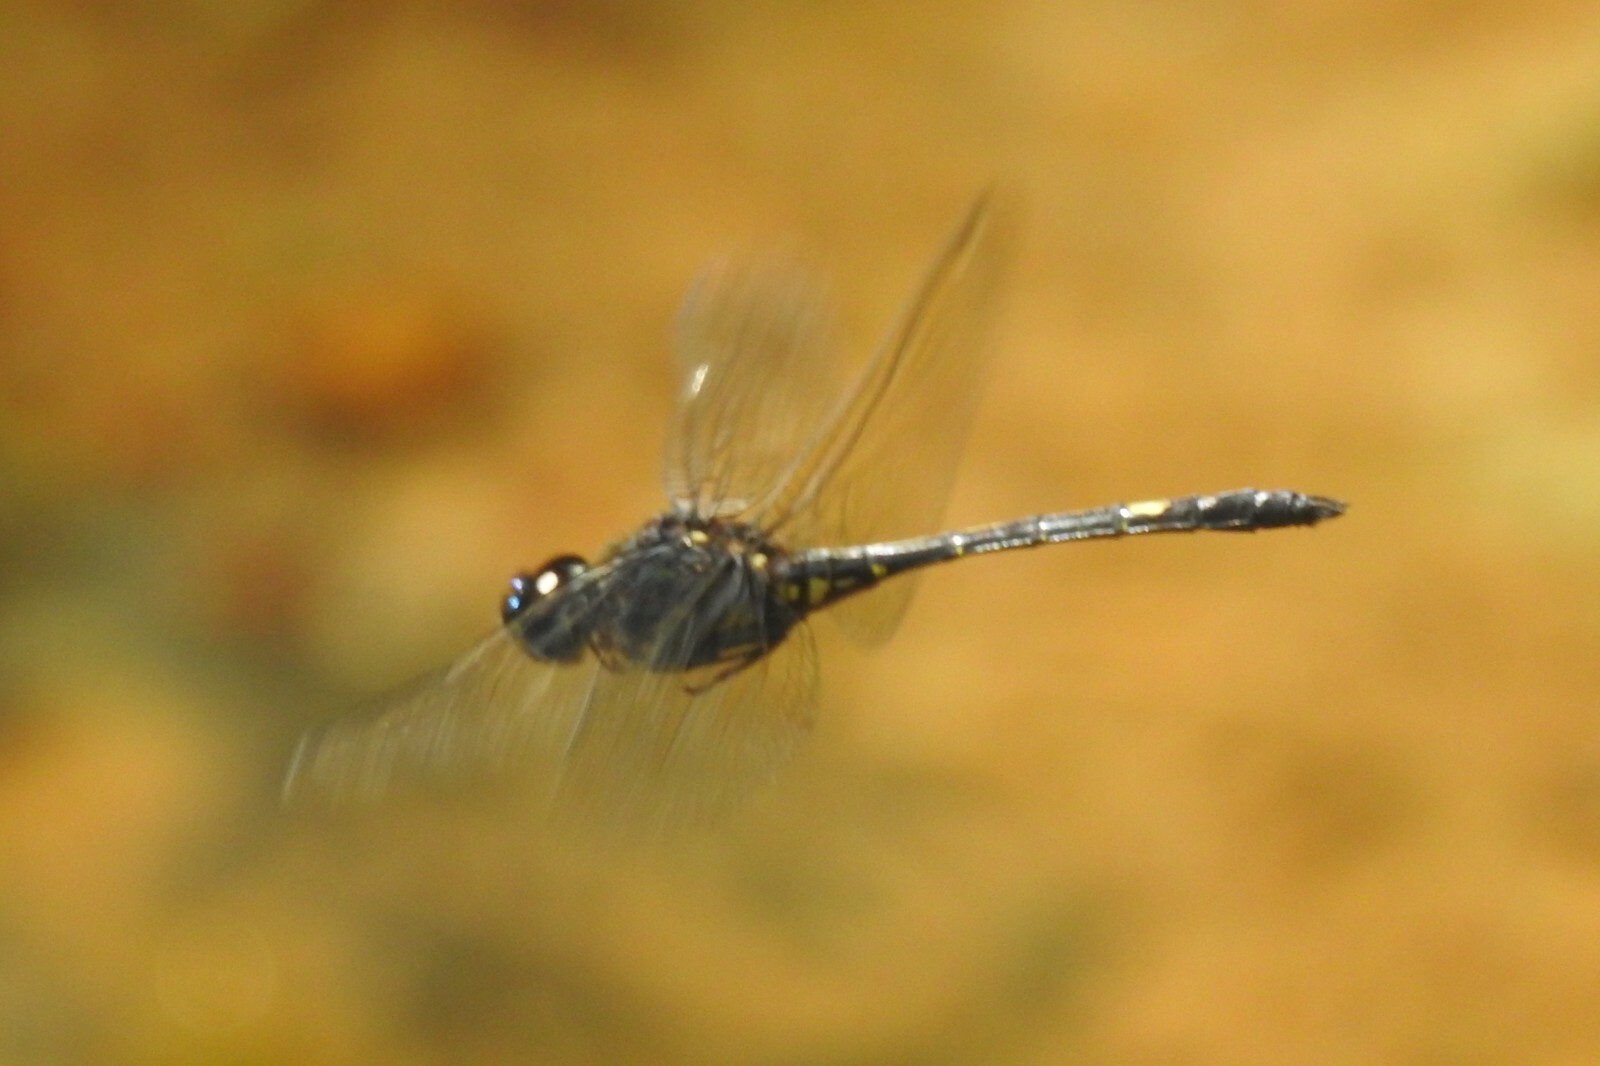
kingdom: Animalia
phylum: Arthropoda
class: Insecta
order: Odonata
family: Libellulidae
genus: Zygonyx
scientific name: Zygonyx iris
